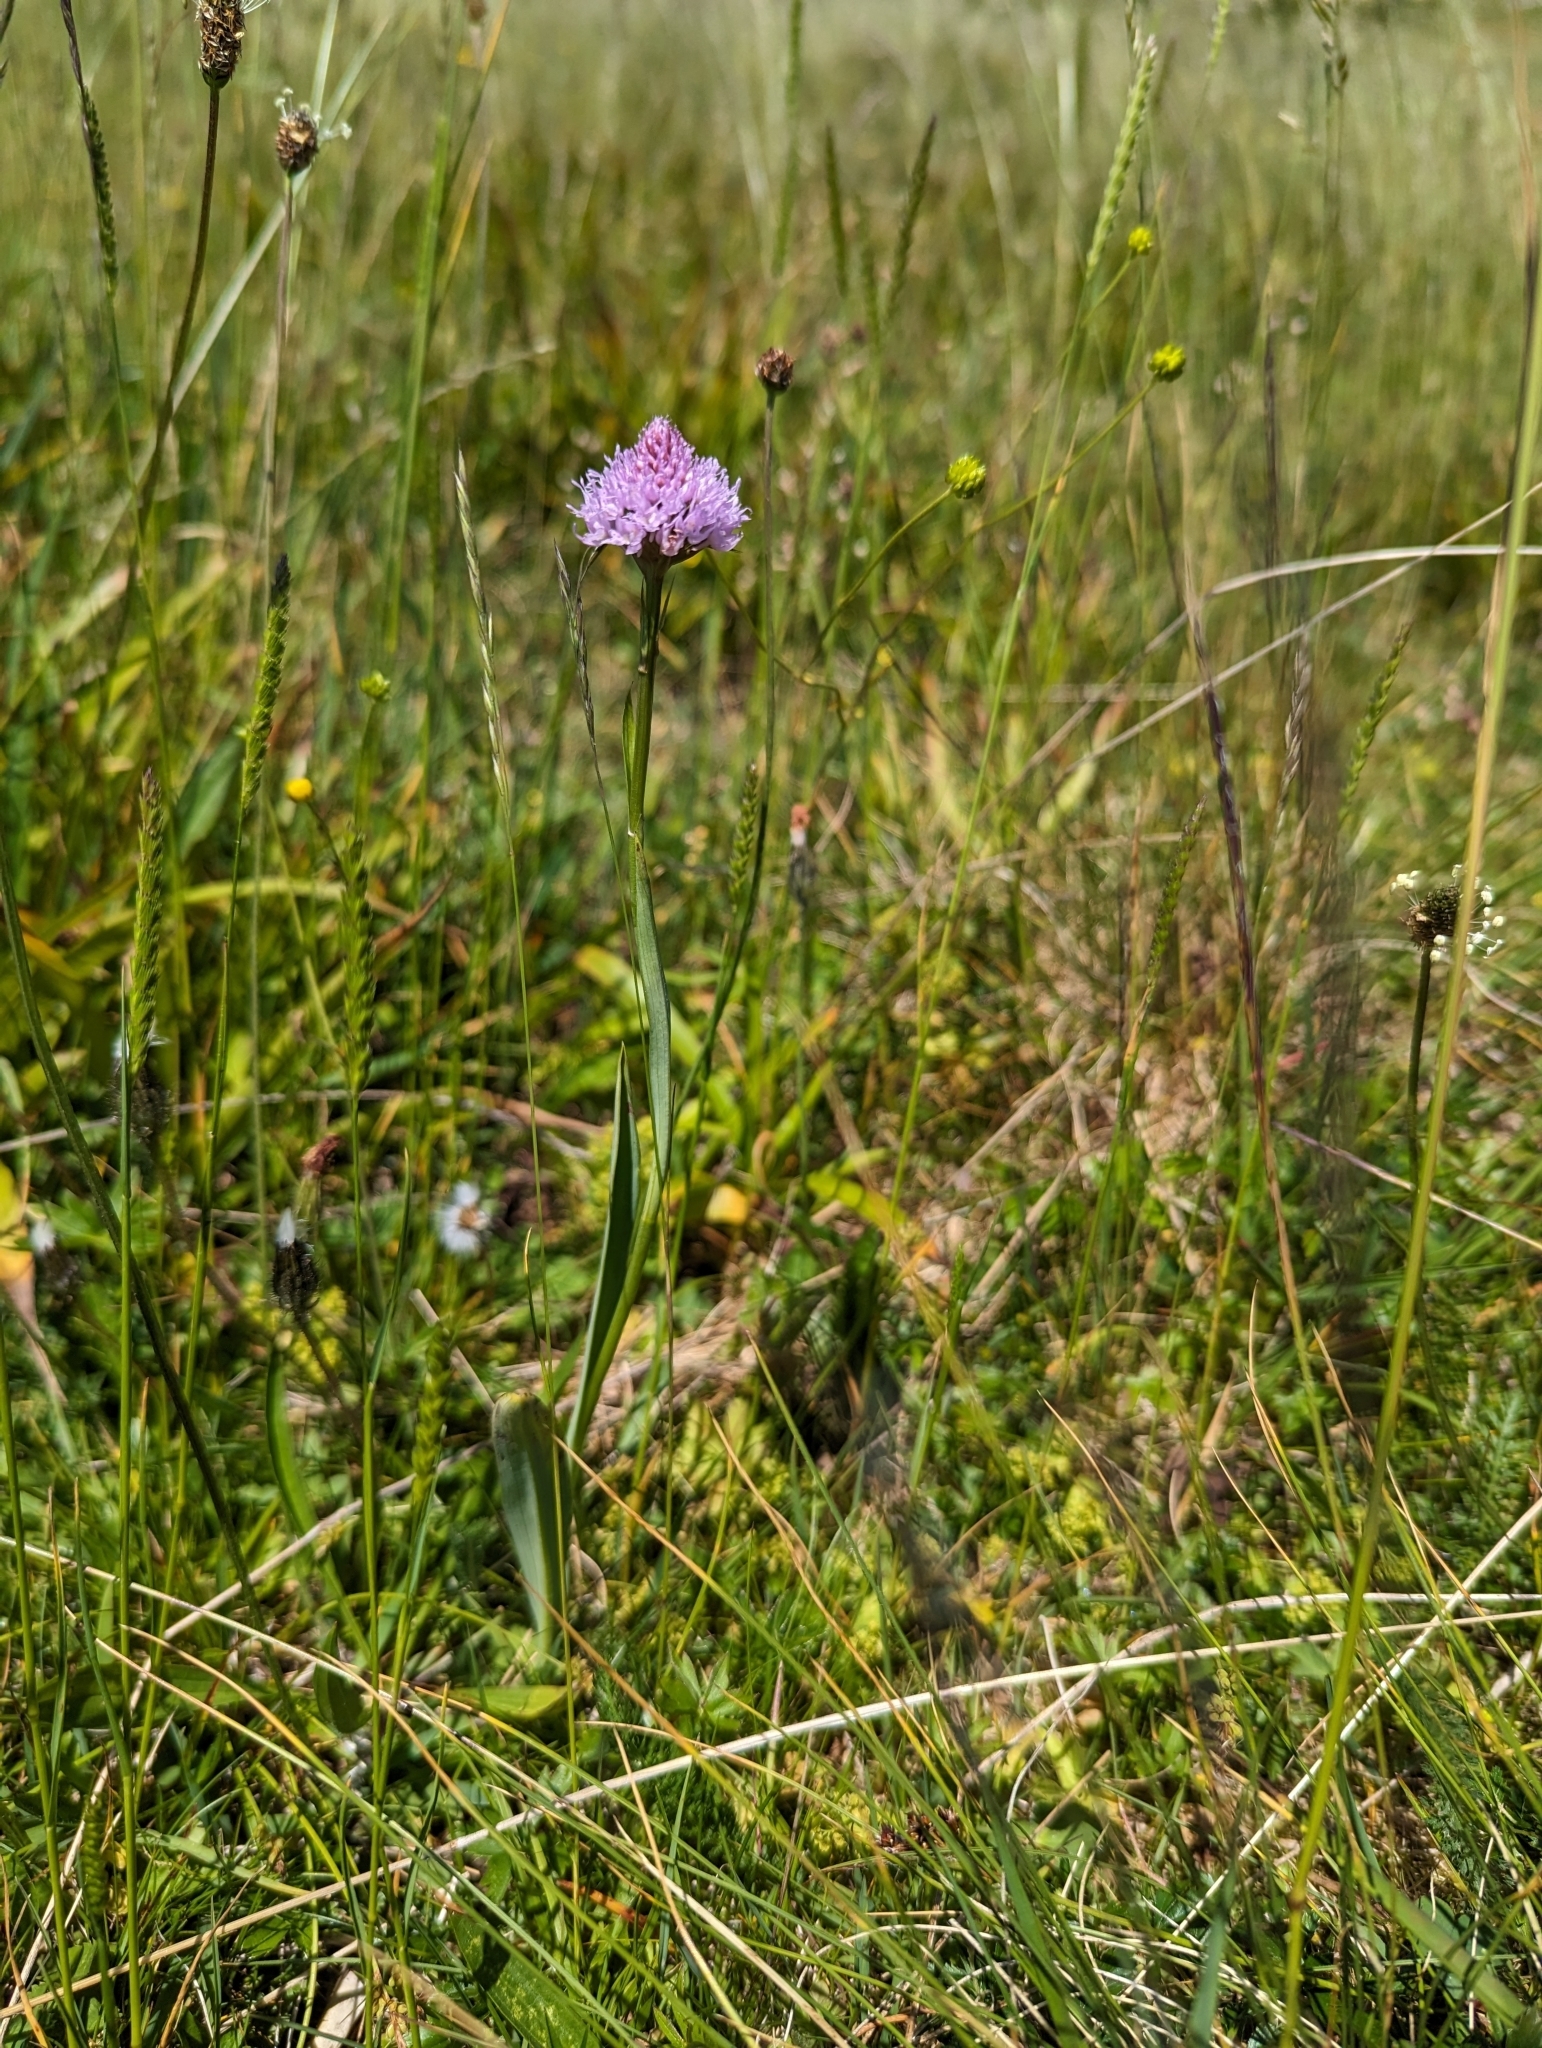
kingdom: Plantae
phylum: Tracheophyta
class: Liliopsida
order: Asparagales
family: Orchidaceae
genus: Traunsteinera
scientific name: Traunsteinera globosa
